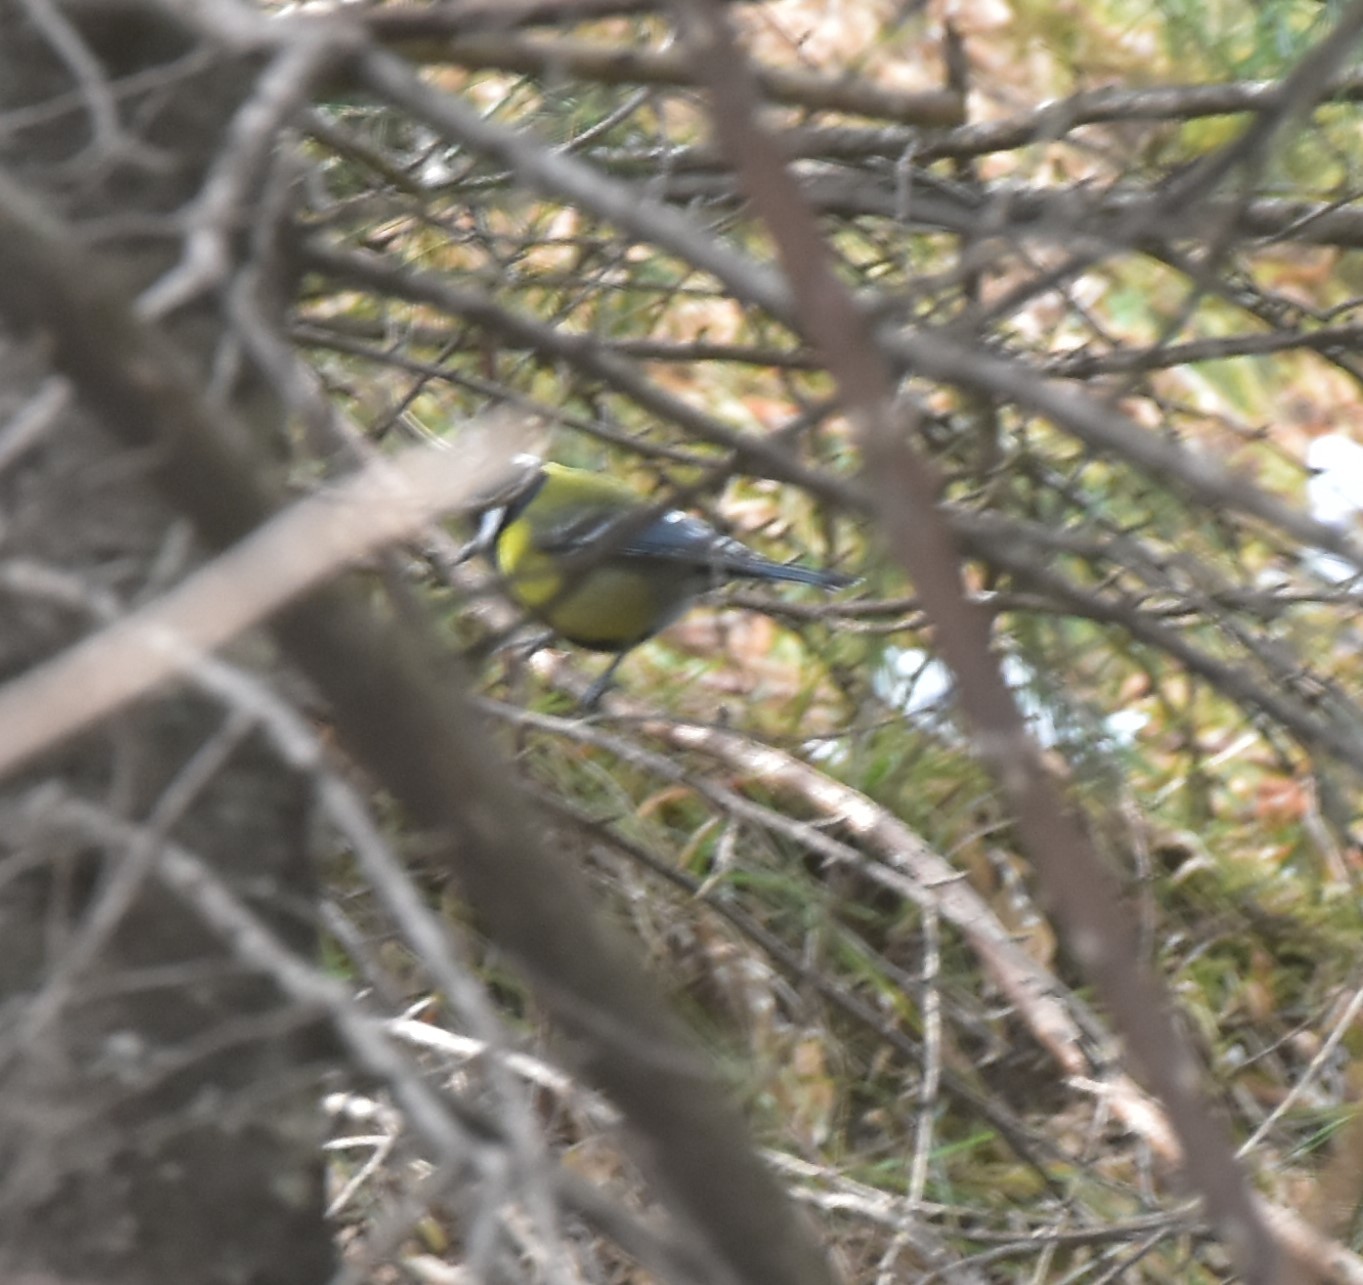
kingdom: Animalia
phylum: Chordata
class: Aves
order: Passeriformes
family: Paridae
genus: Parus
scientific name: Parus monticolus
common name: Green-backed tit
